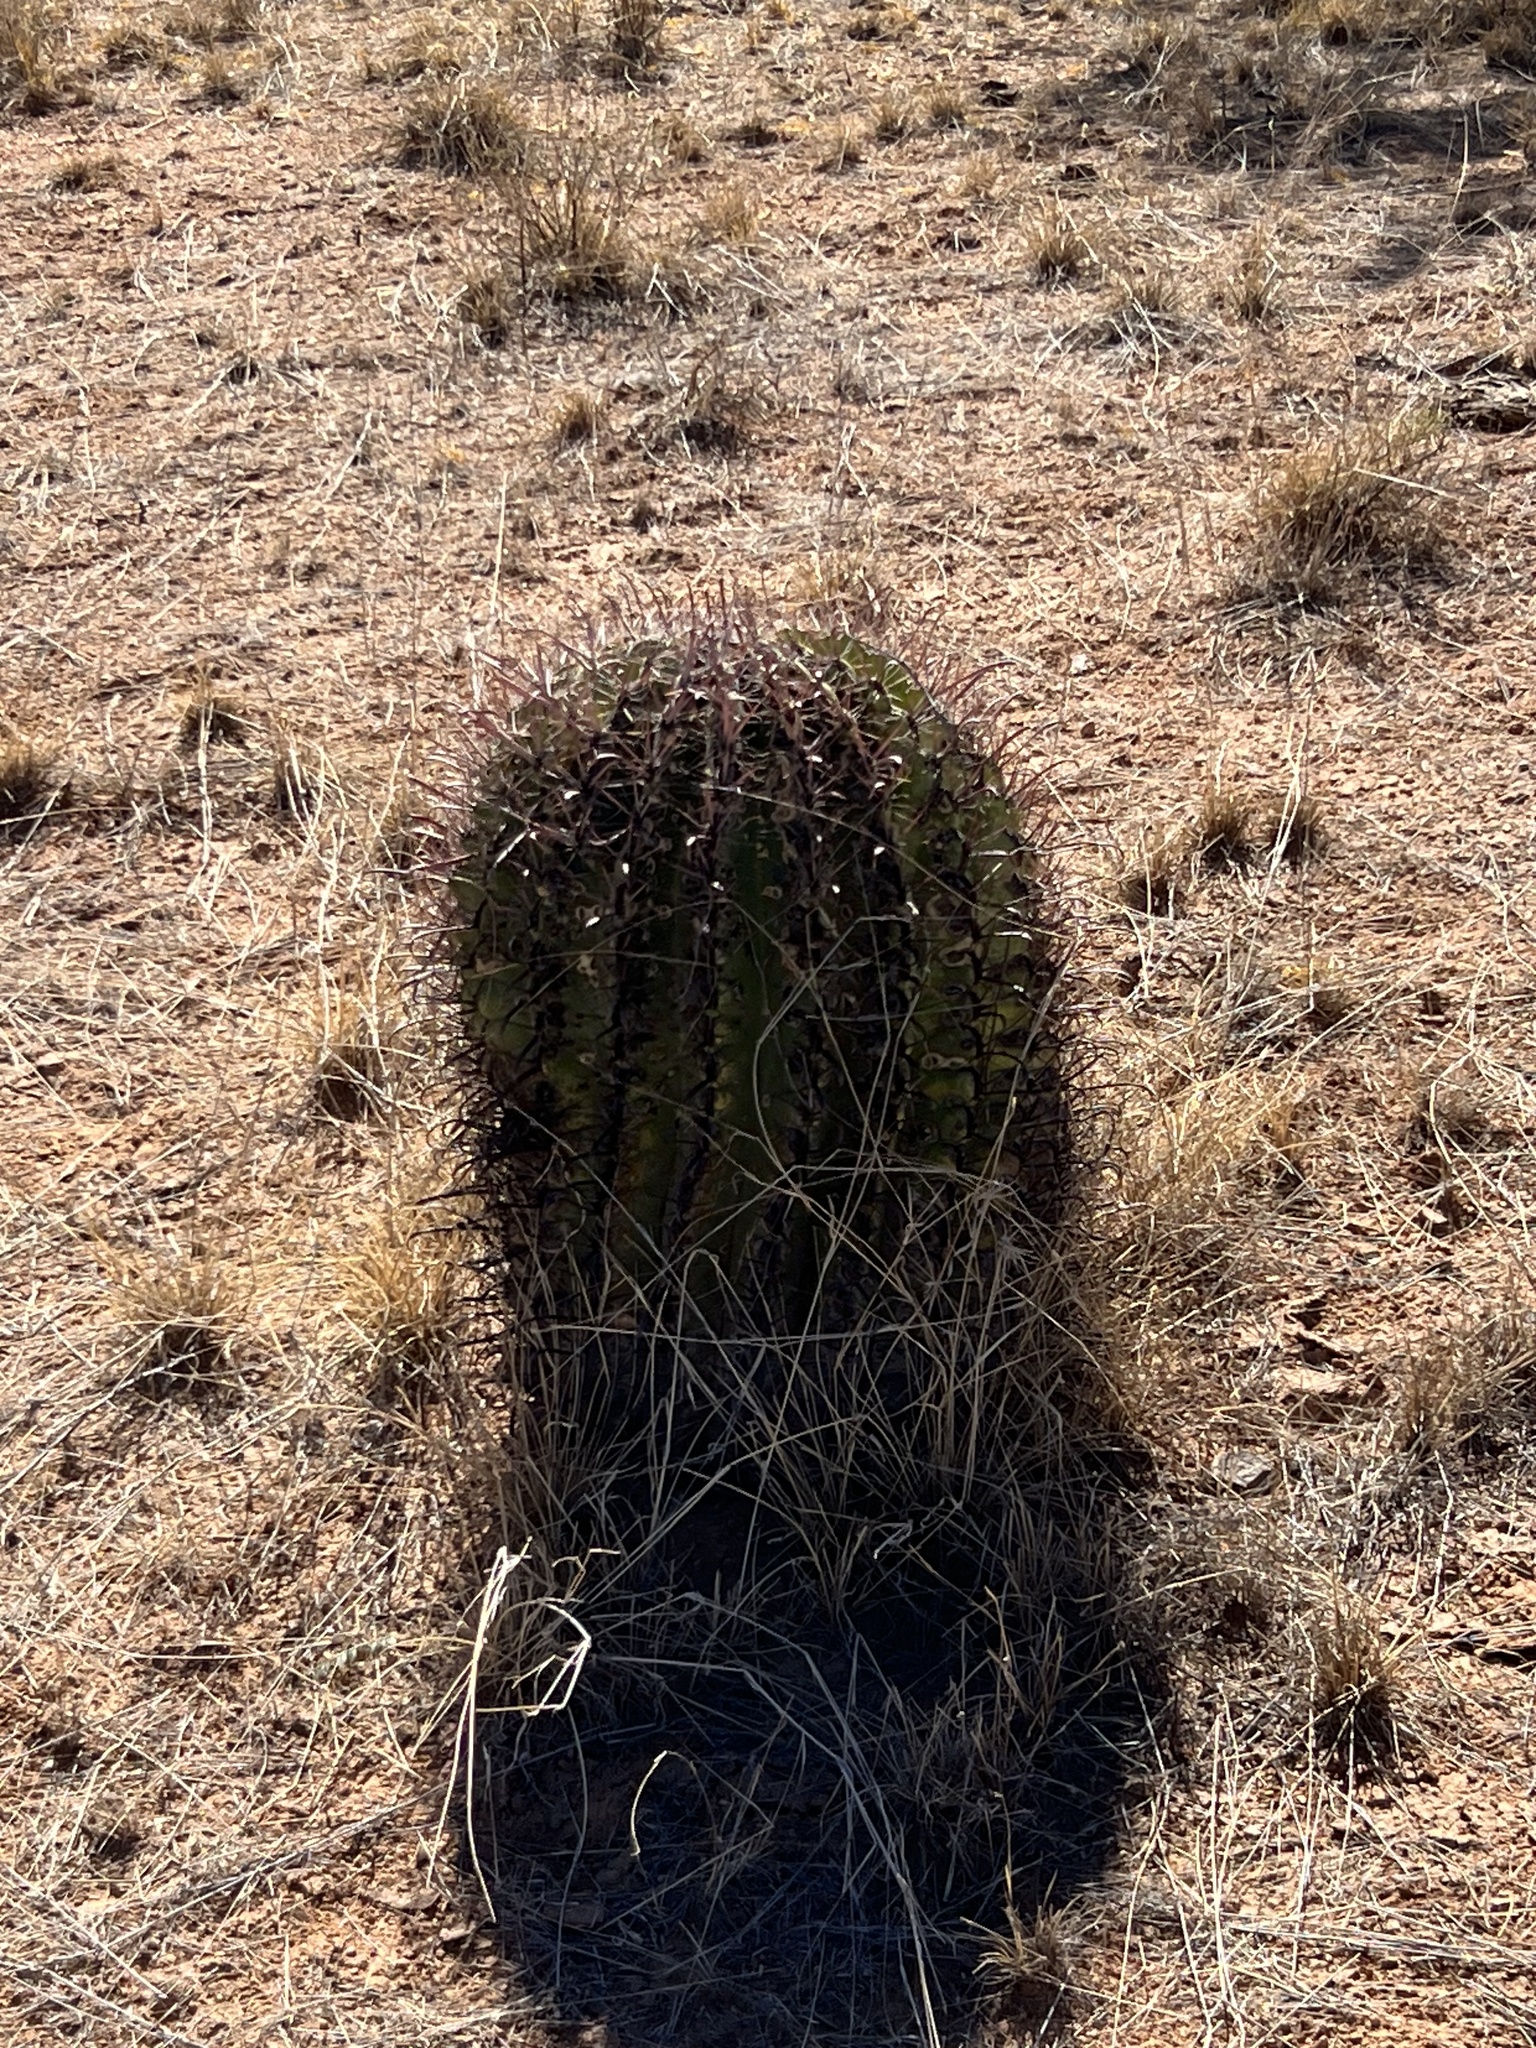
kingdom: Plantae
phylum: Tracheophyta
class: Magnoliopsida
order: Caryophyllales
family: Cactaceae
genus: Ferocactus
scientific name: Ferocactus wislizeni
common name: Candy barrel cactus
